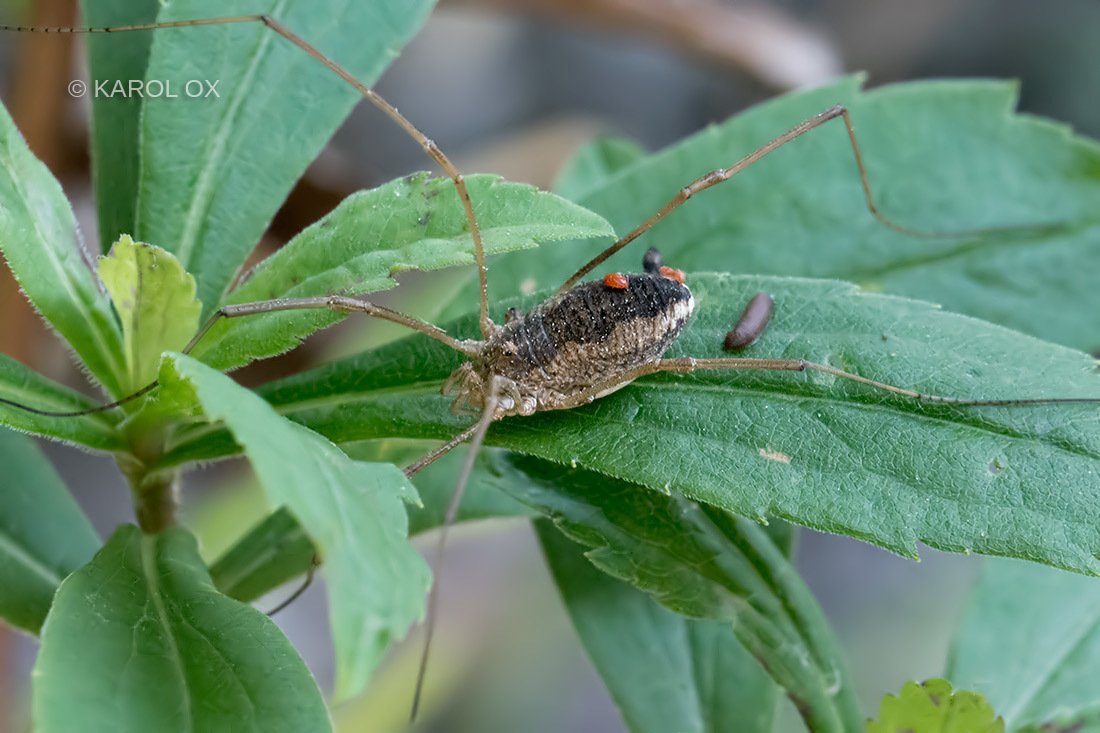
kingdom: Animalia
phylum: Arthropoda
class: Arachnida
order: Opiliones
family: Phalangiidae
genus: Phalangium
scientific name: Phalangium opilio
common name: Daddy longleg
